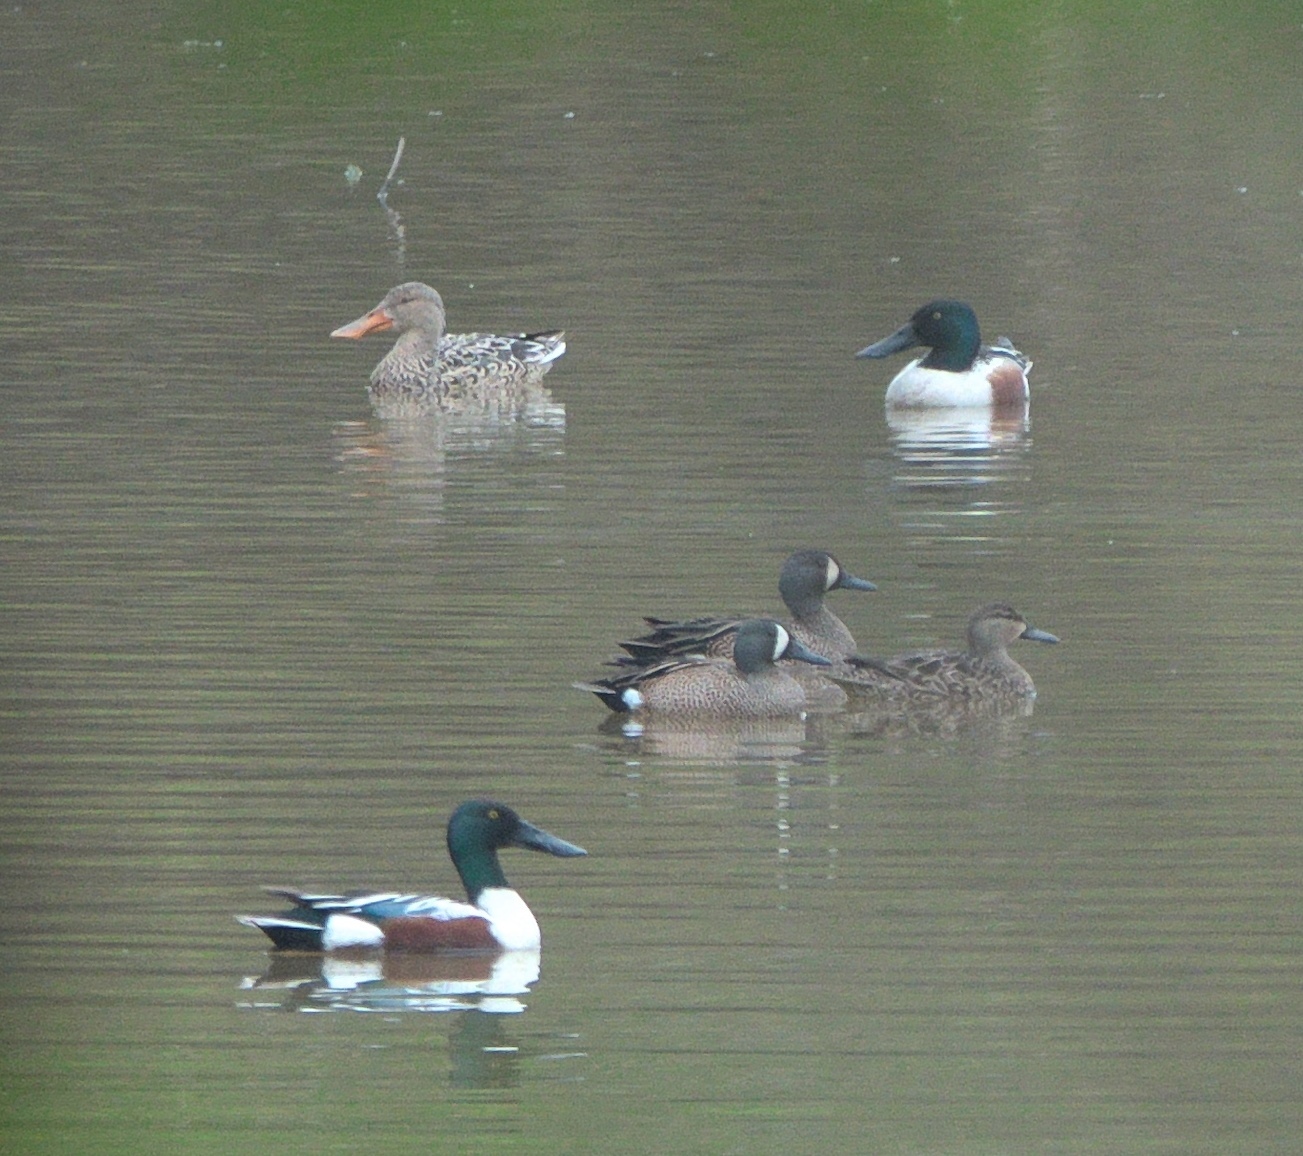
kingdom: Animalia
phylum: Chordata
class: Aves
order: Anseriformes
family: Anatidae
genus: Spatula
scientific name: Spatula clypeata
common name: Northern shoveler
